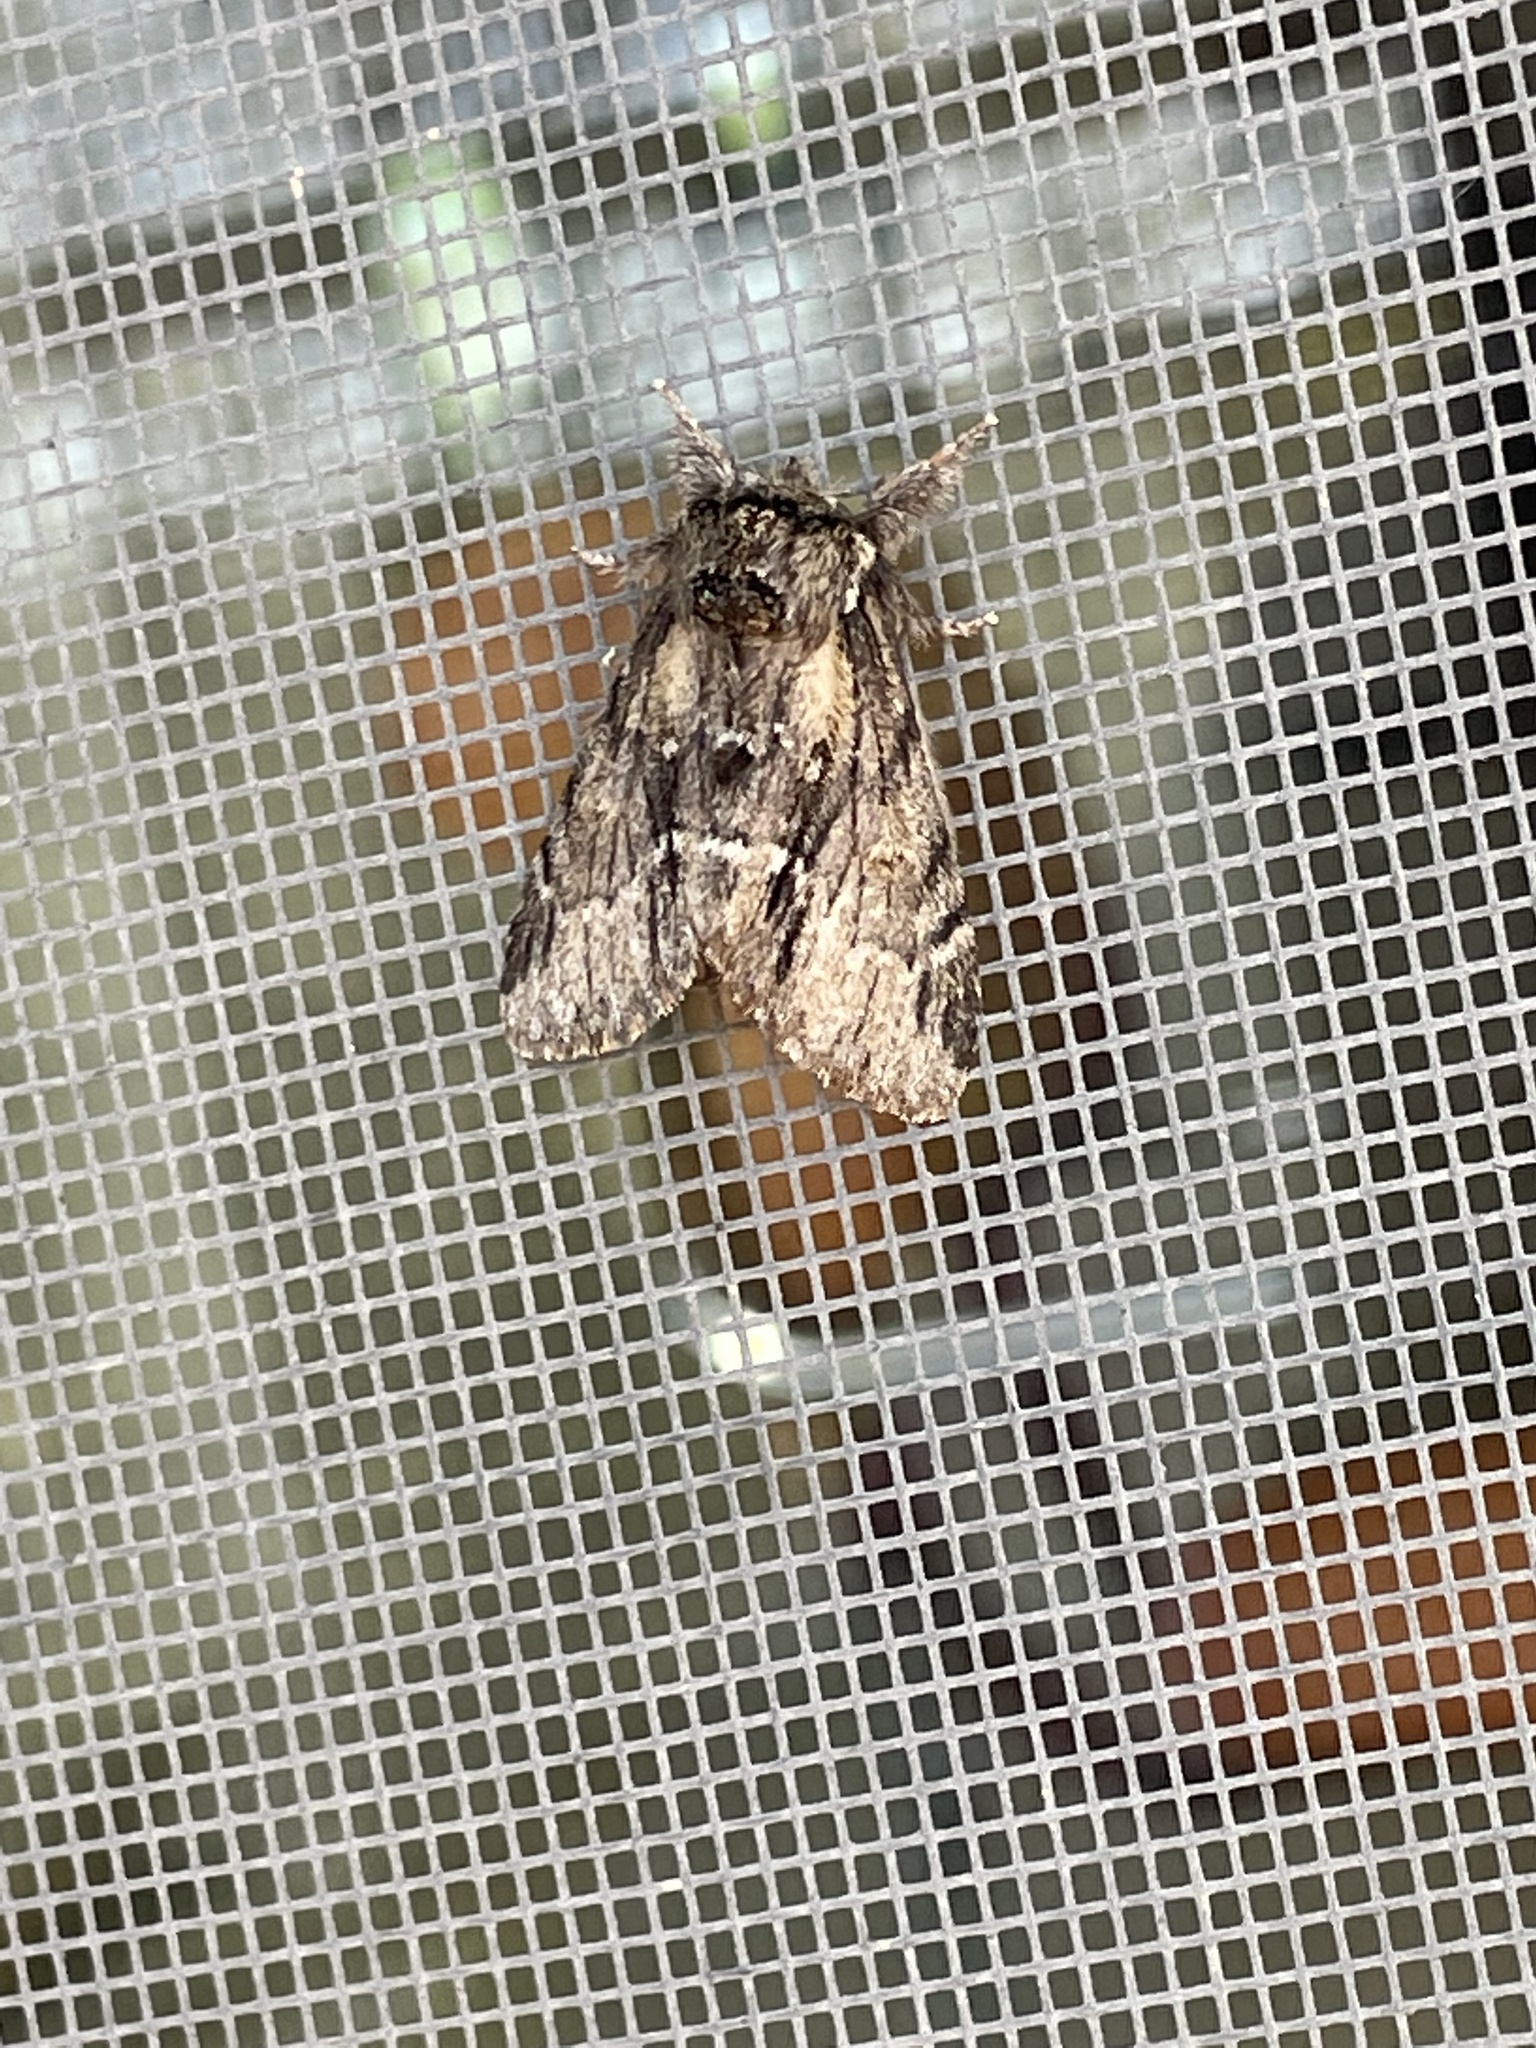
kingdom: Animalia
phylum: Arthropoda
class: Insecta
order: Lepidoptera
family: Notodontidae
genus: Paraeschra
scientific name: Paraeschra georgica
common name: Georgian prominent
